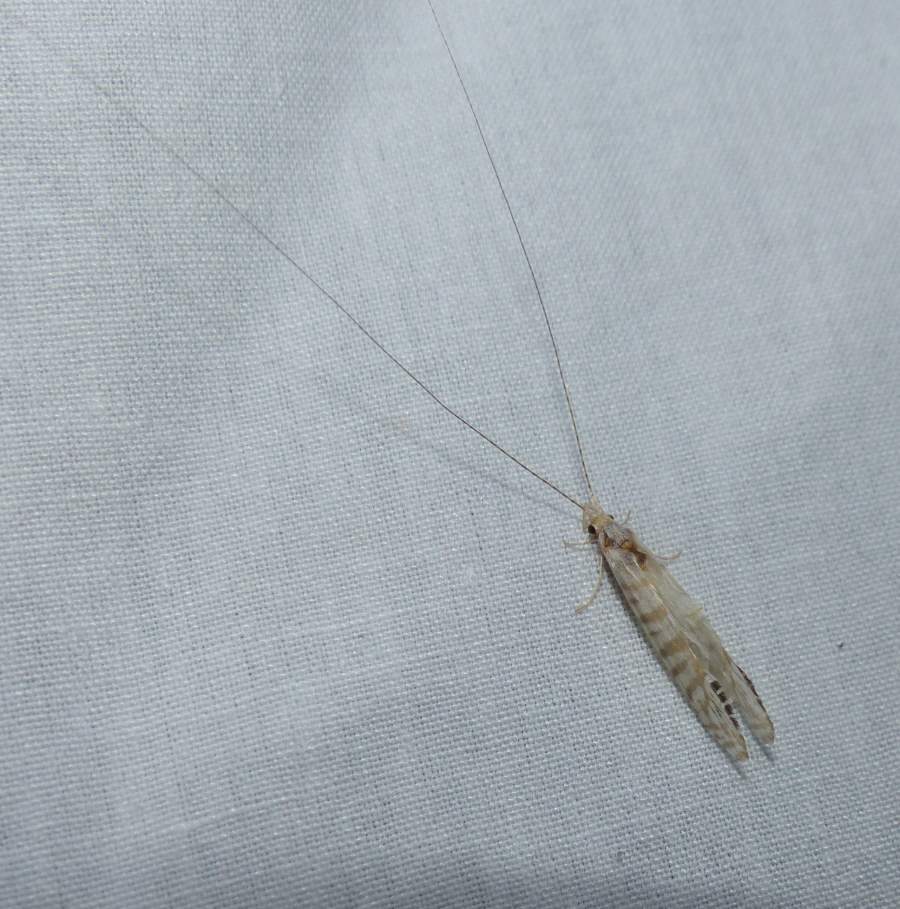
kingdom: Animalia
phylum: Arthropoda
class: Insecta
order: Trichoptera
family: Leptoceridae
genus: Nectopsyche
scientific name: Nectopsyche exquisita
